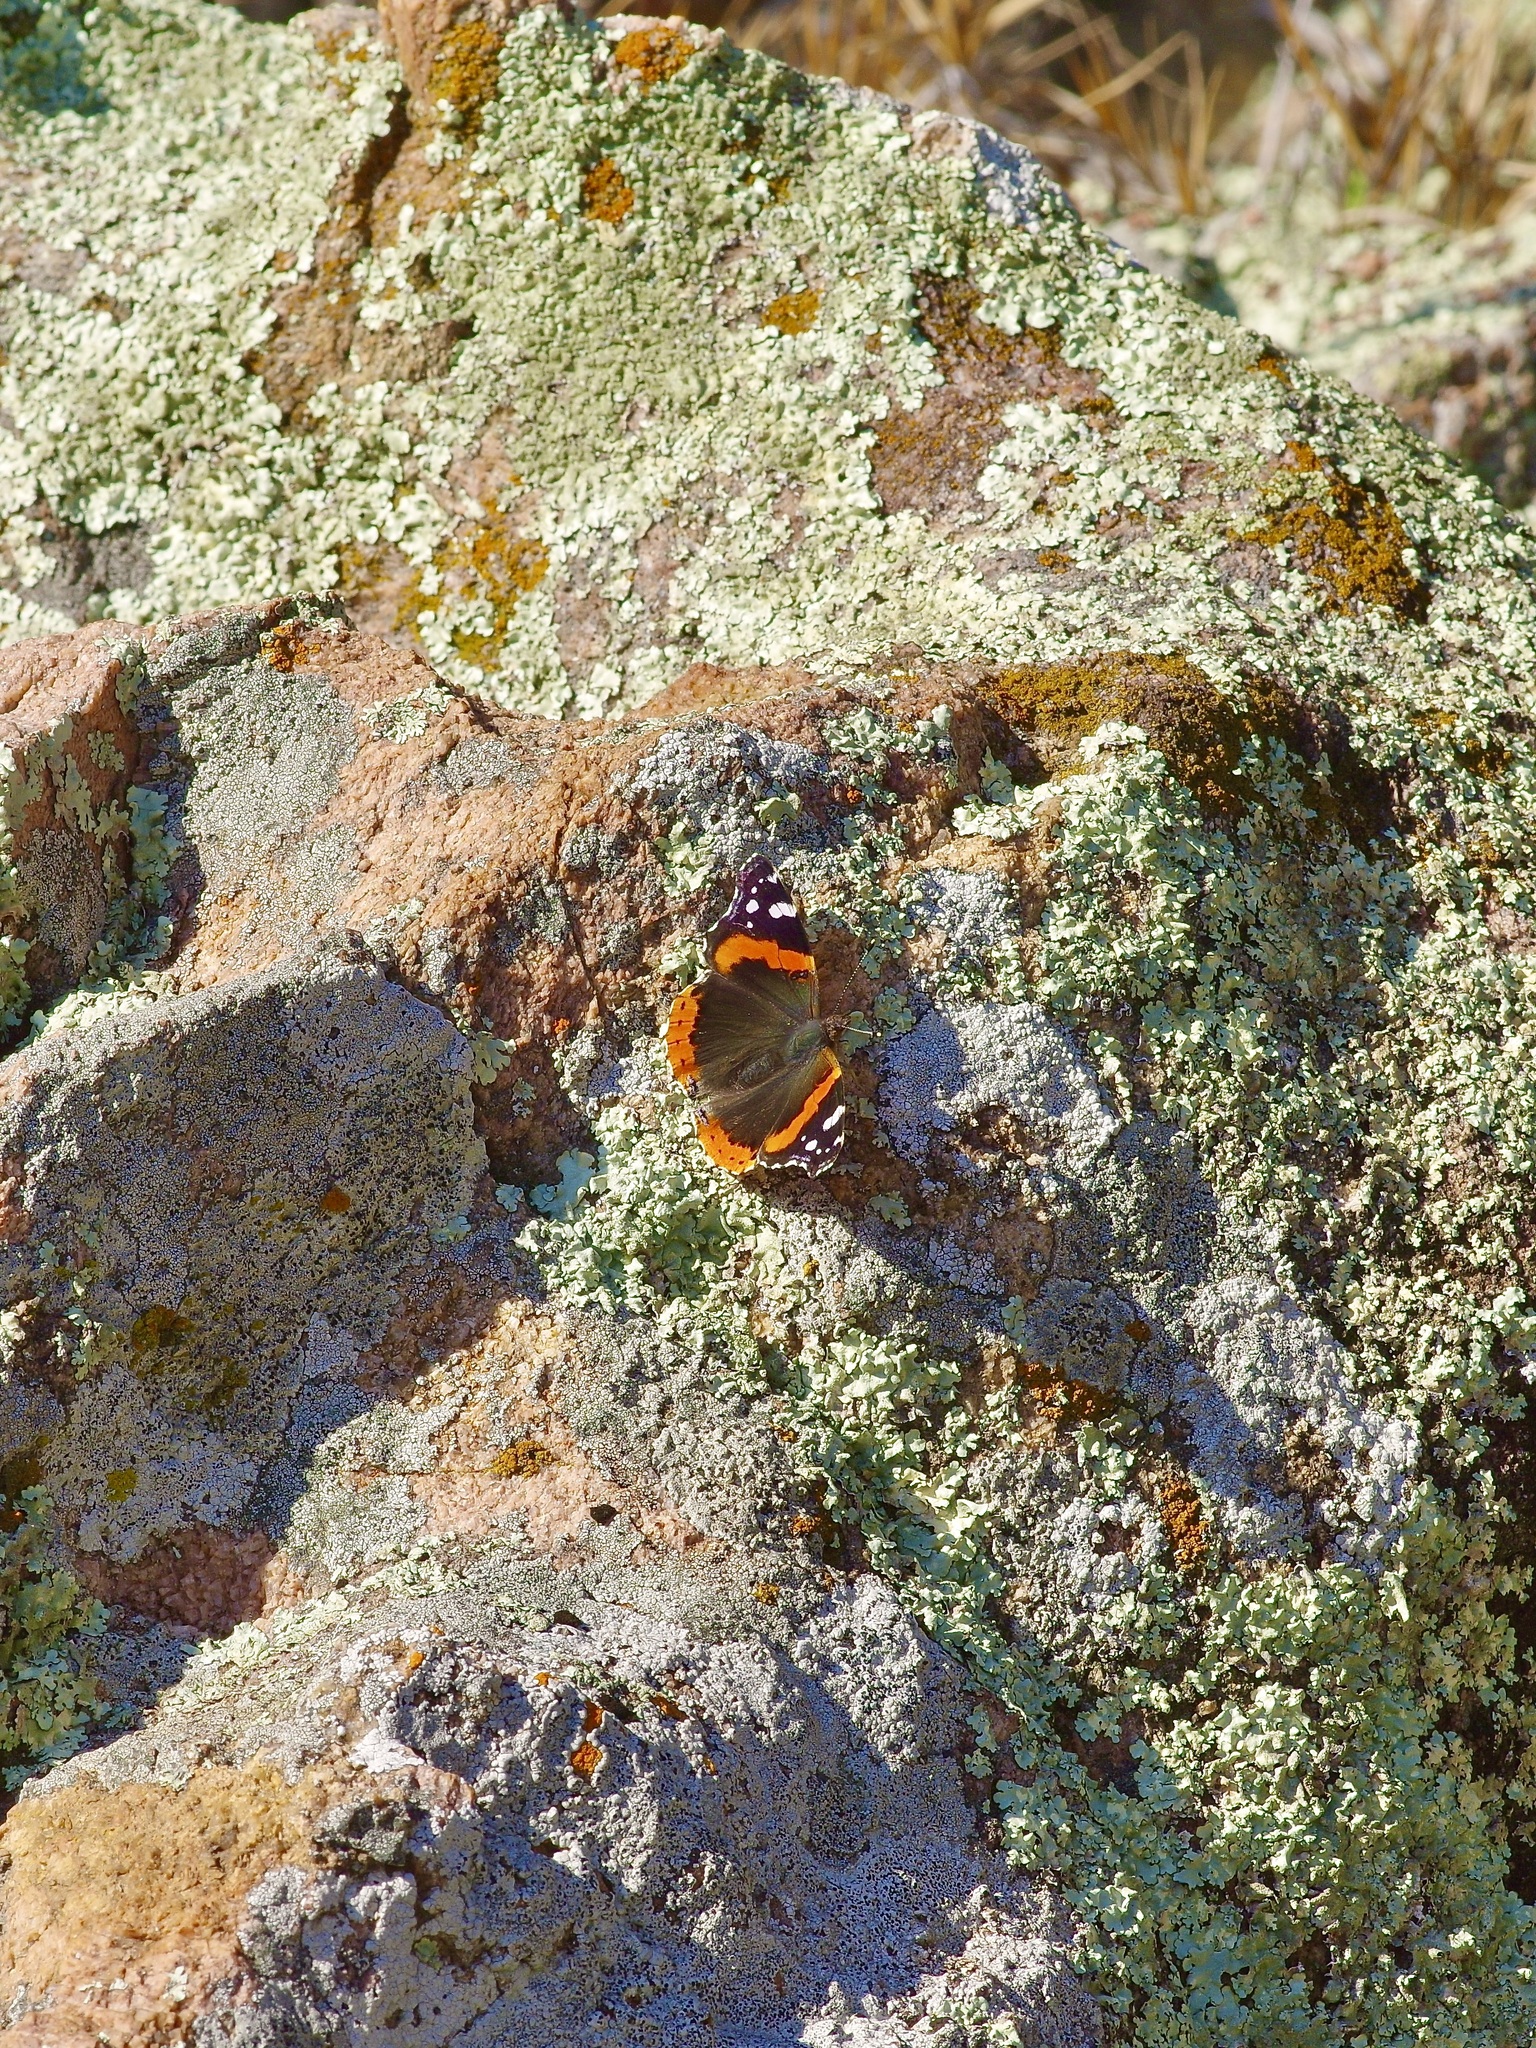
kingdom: Animalia
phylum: Arthropoda
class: Insecta
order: Lepidoptera
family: Nymphalidae
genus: Vanessa
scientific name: Vanessa atalanta
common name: Red admiral
